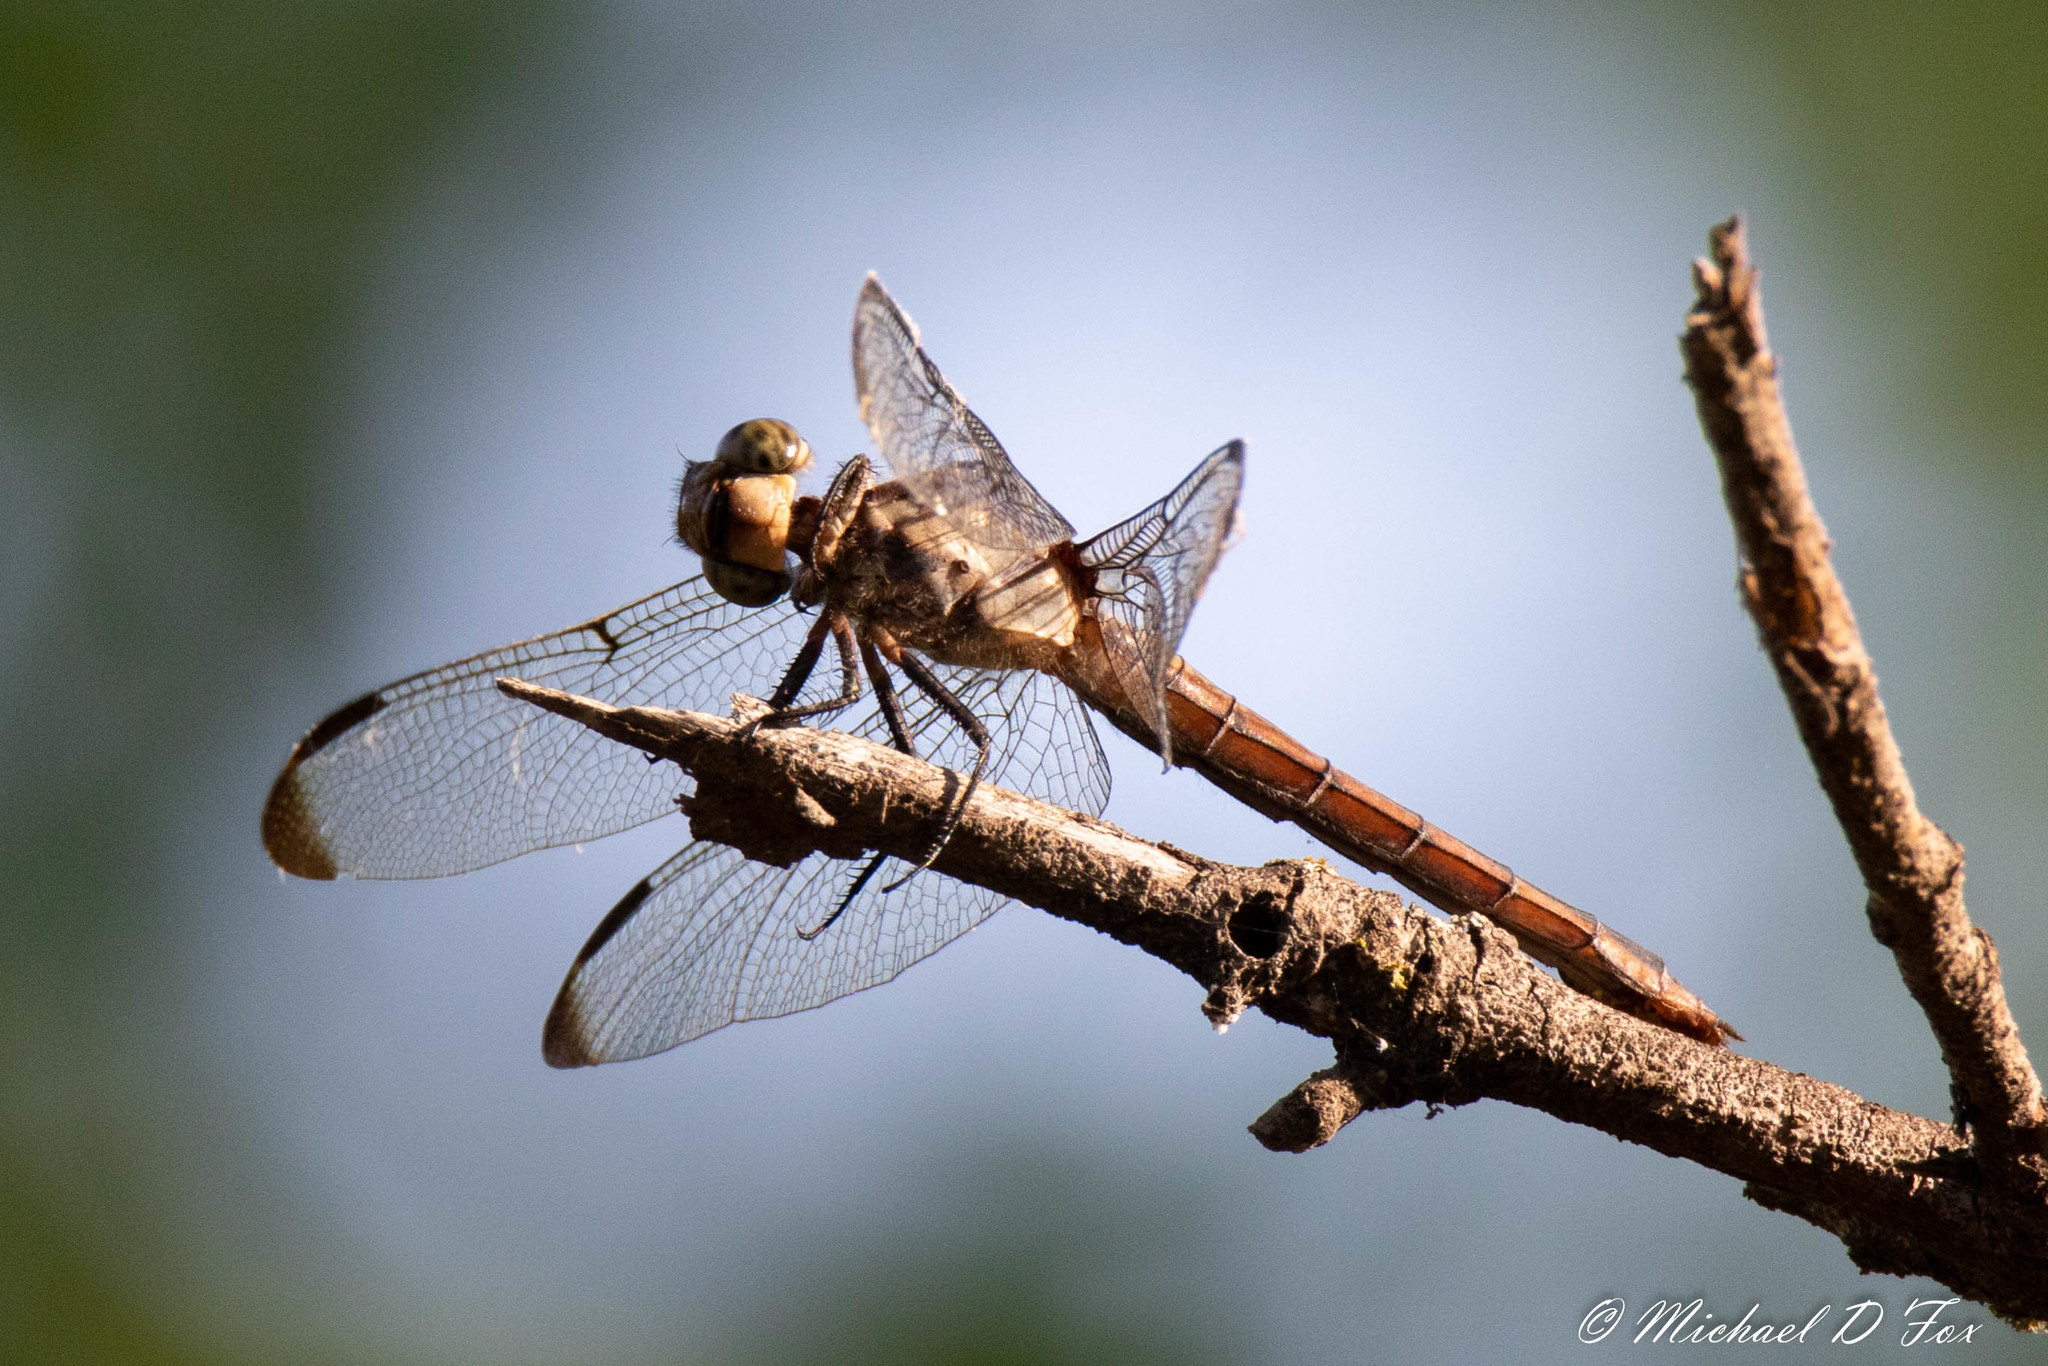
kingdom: Animalia
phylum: Arthropoda
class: Insecta
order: Odonata
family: Libellulidae
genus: Orthemis
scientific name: Orthemis ferruginea
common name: Roseate skimmer
